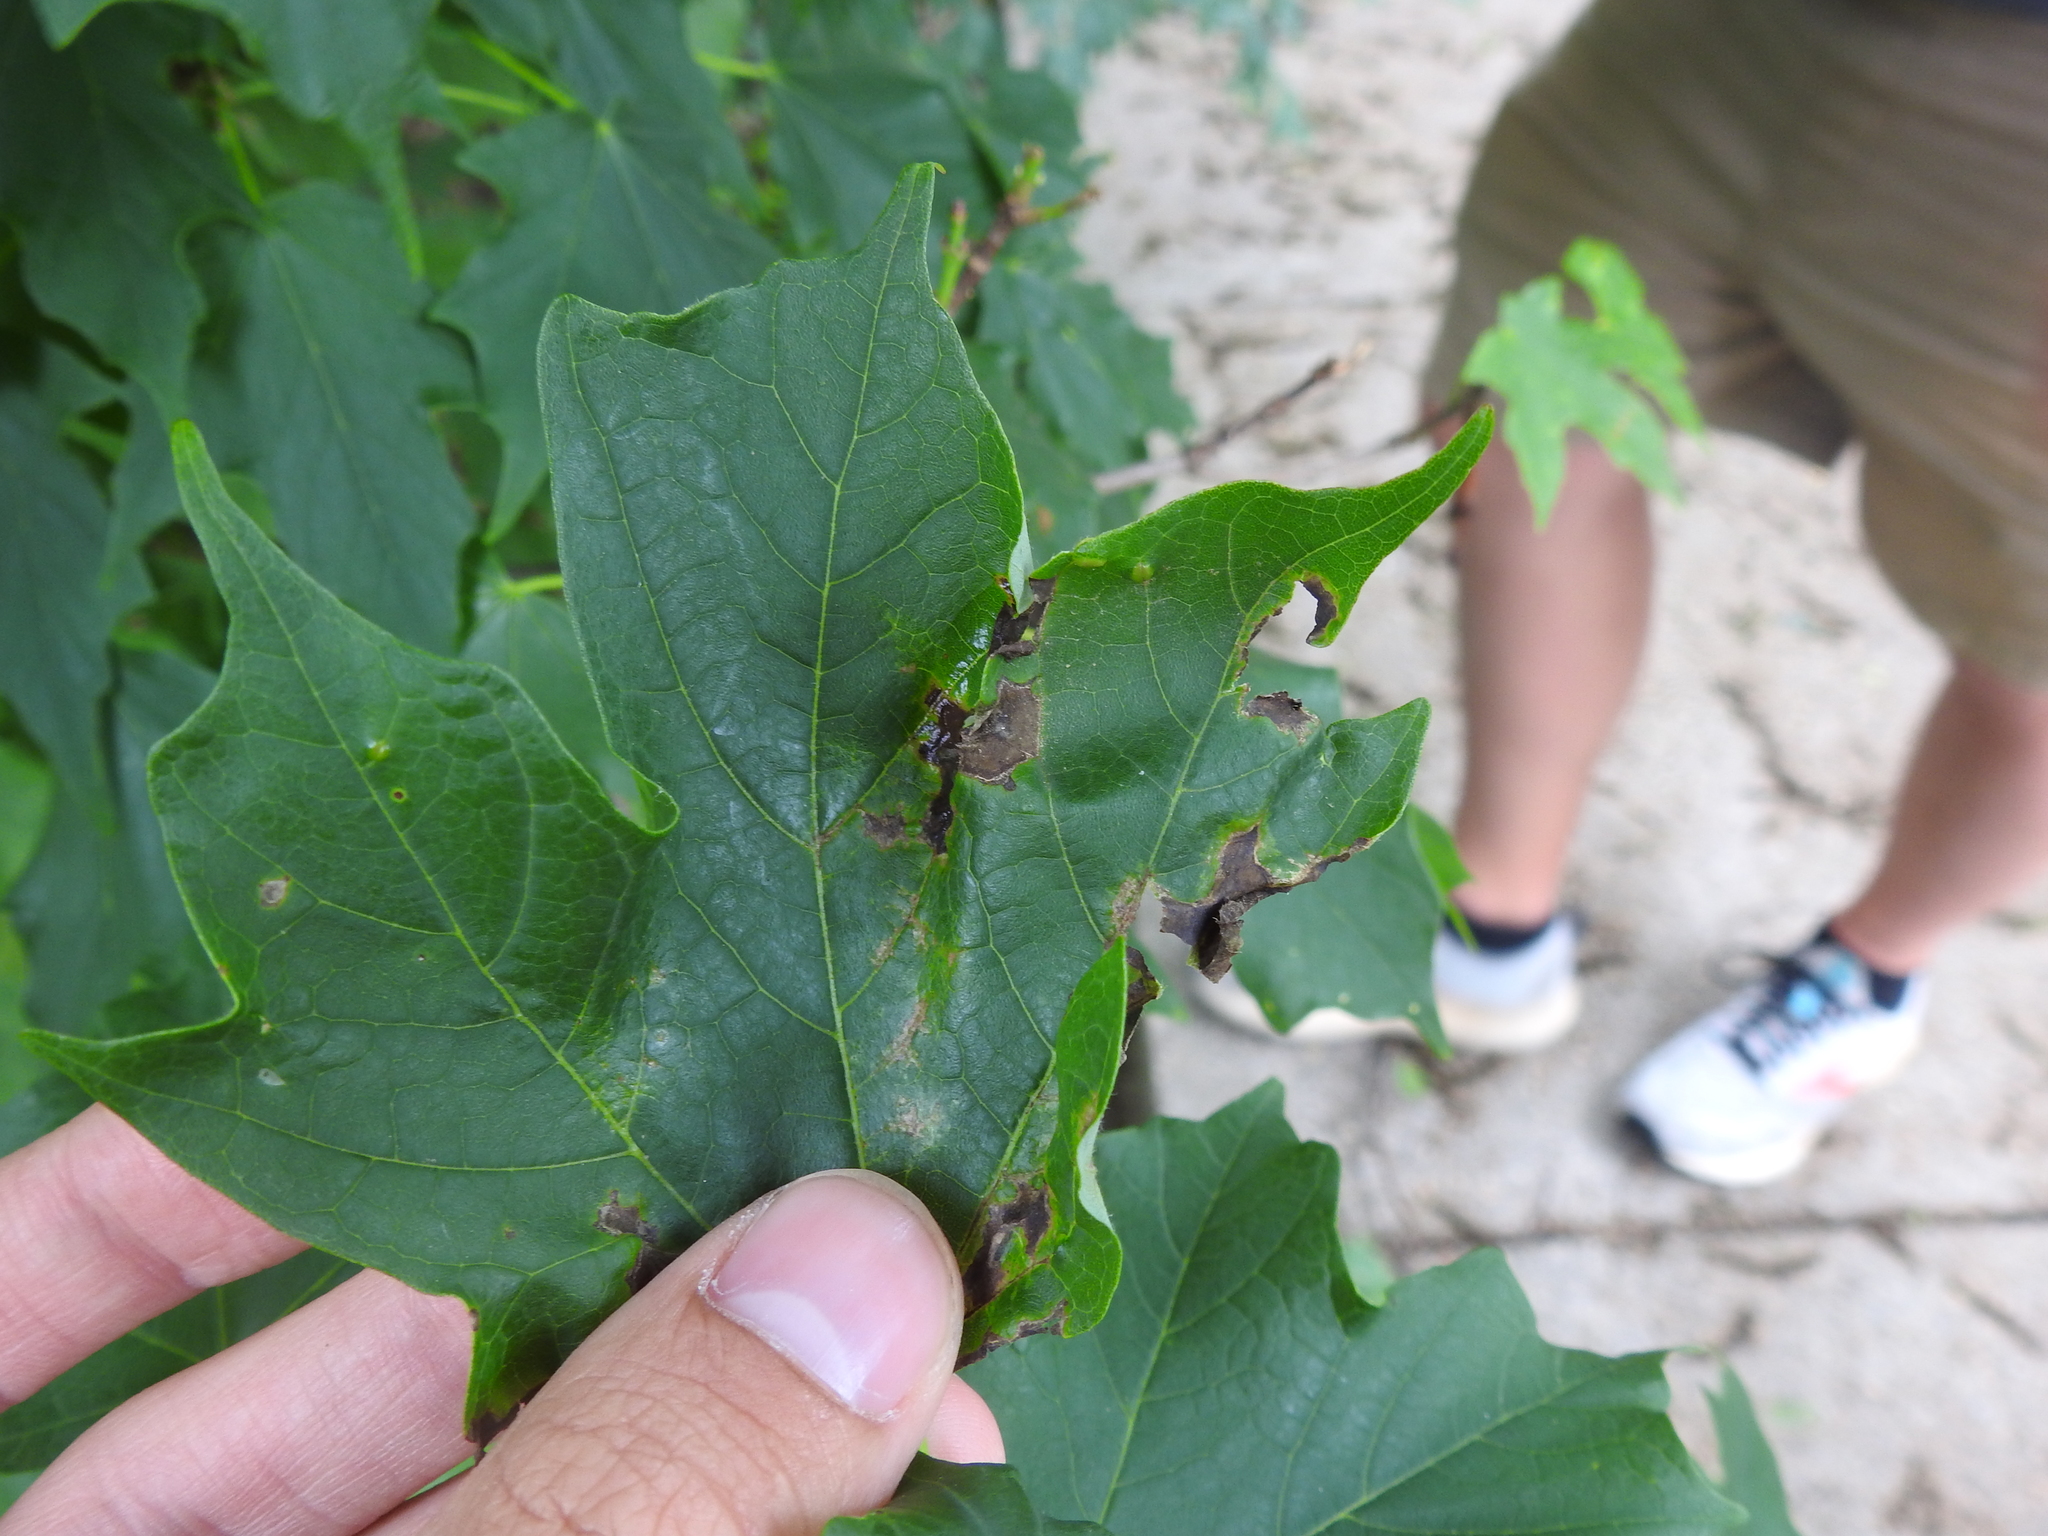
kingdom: Animalia
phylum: Arthropoda
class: Insecta
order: Diptera
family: Cecidomyiidae
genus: Dasineura
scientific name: Dasineura communis
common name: Gouty vein midge
